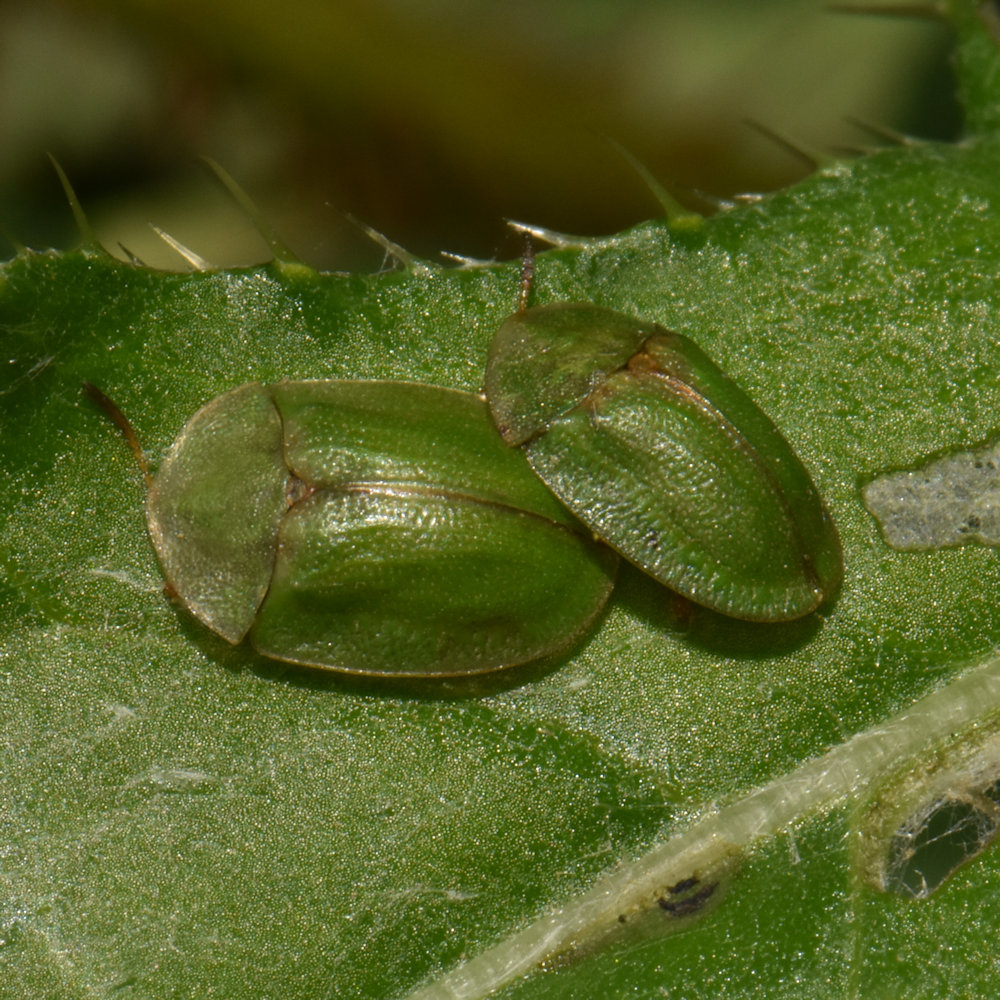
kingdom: Animalia
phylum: Arthropoda
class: Insecta
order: Coleoptera
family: Chrysomelidae
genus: Cassida
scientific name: Cassida rubiginosa
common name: Thistle tortoise beetle
